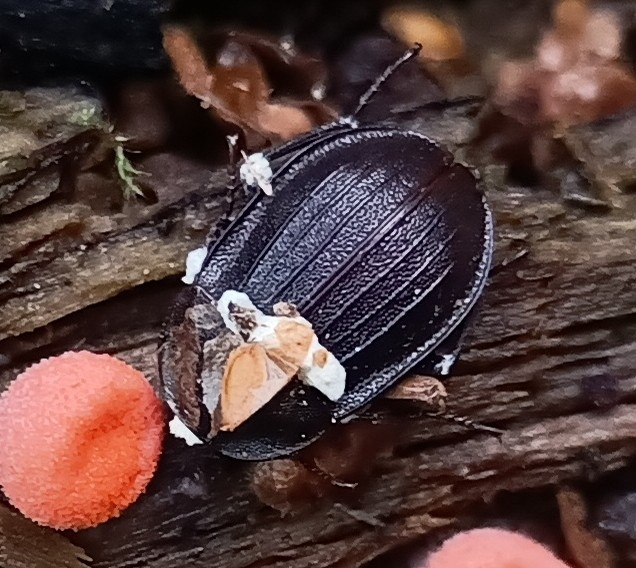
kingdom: Animalia
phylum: Arthropoda
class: Insecta
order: Coleoptera
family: Staphylinidae
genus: Silpha
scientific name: Silpha atrata
